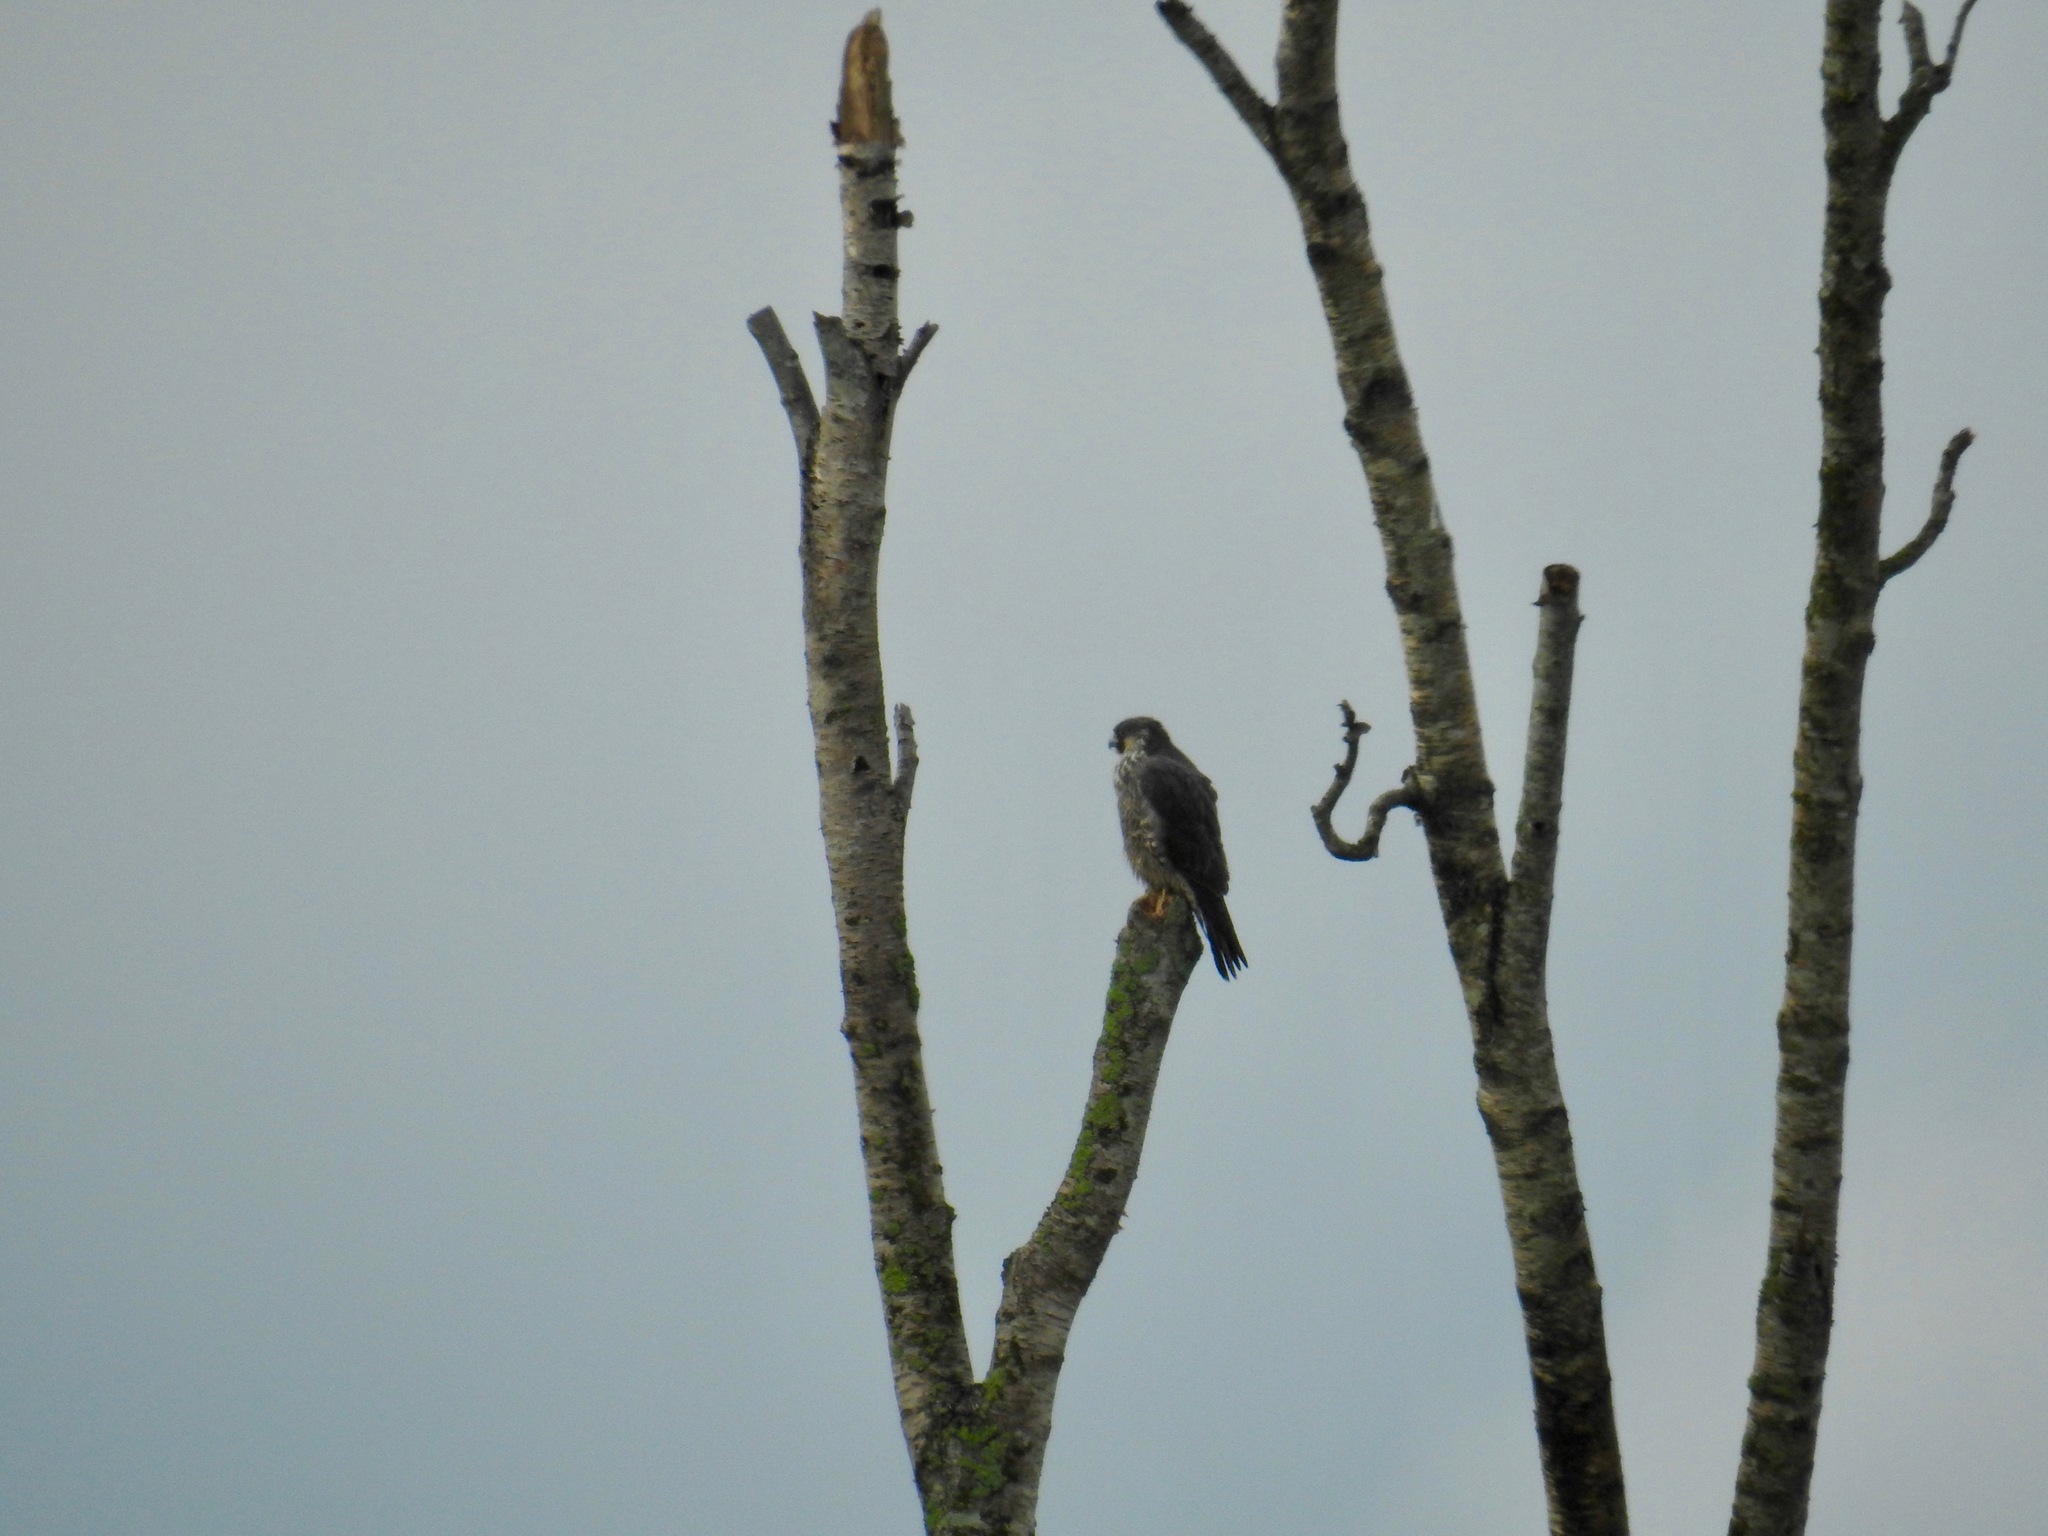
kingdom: Animalia
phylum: Chordata
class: Aves
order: Falconiformes
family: Falconidae
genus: Falco
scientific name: Falco peregrinus
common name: Peregrine falcon
